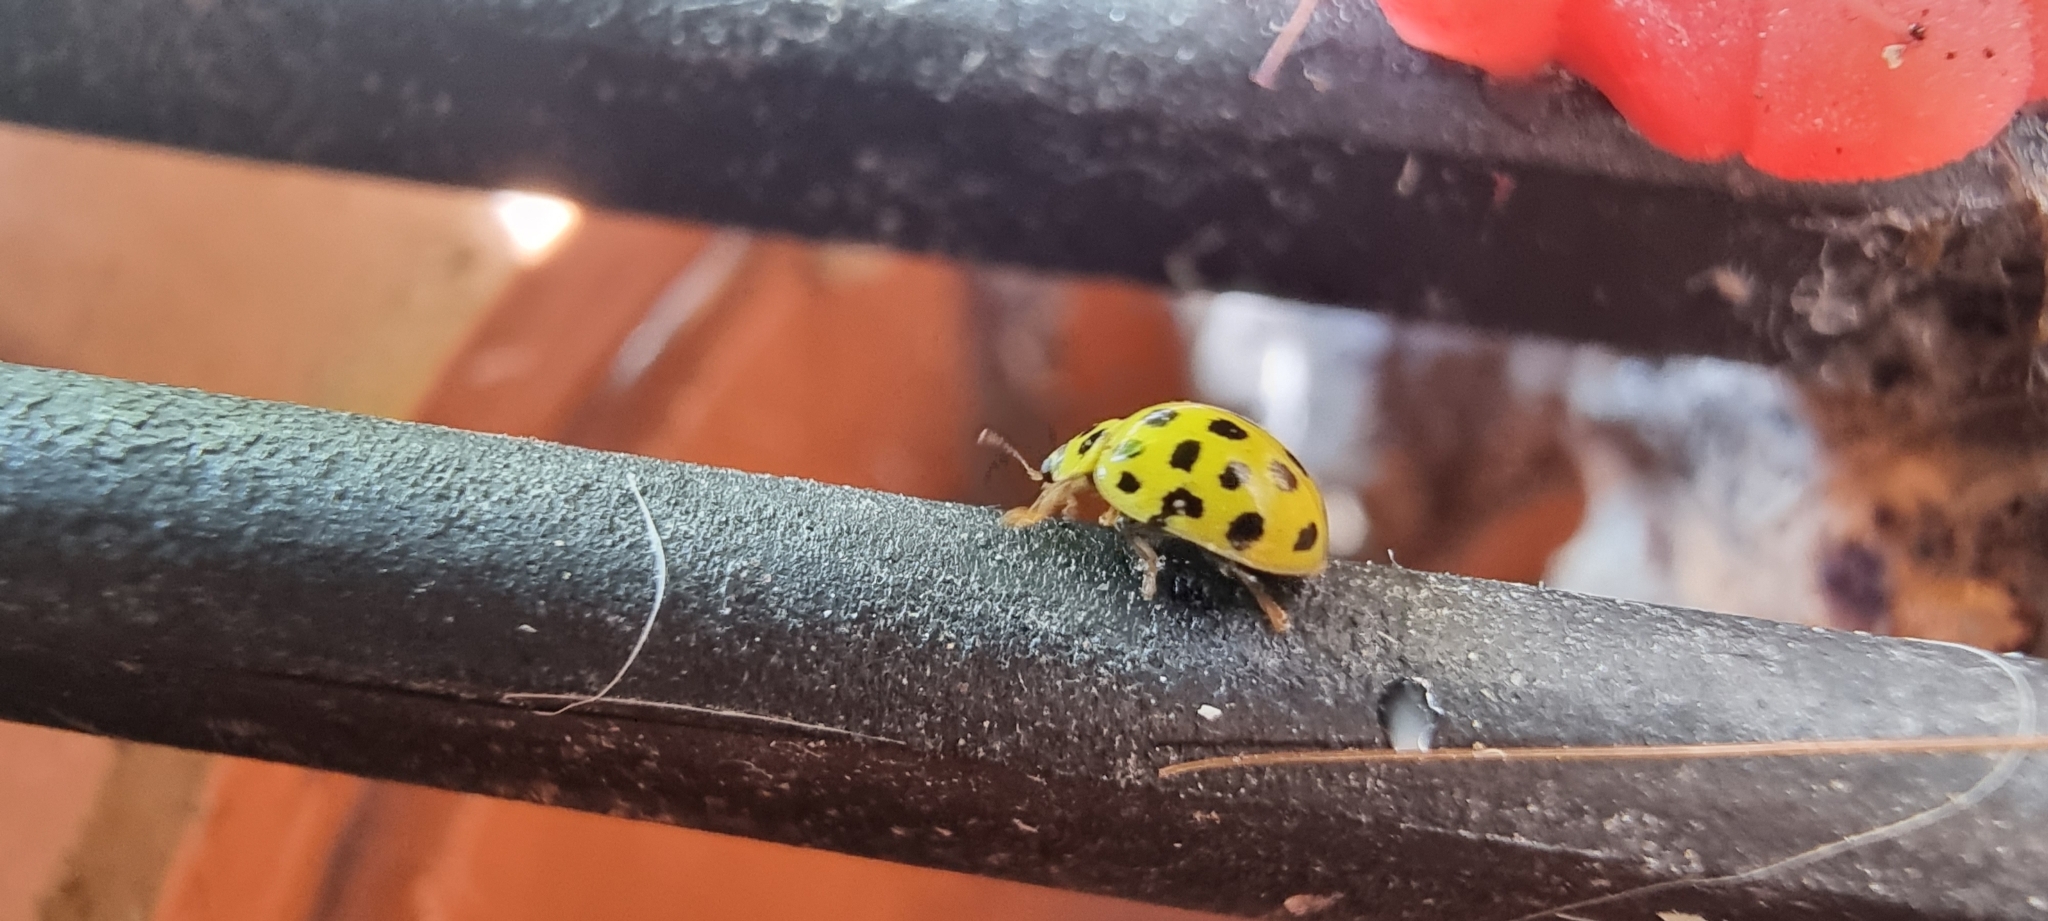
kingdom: Animalia
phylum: Arthropoda
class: Insecta
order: Coleoptera
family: Coccinellidae
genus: Psyllobora
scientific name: Psyllobora vigintiduopunctata
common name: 22-spot ladybird
